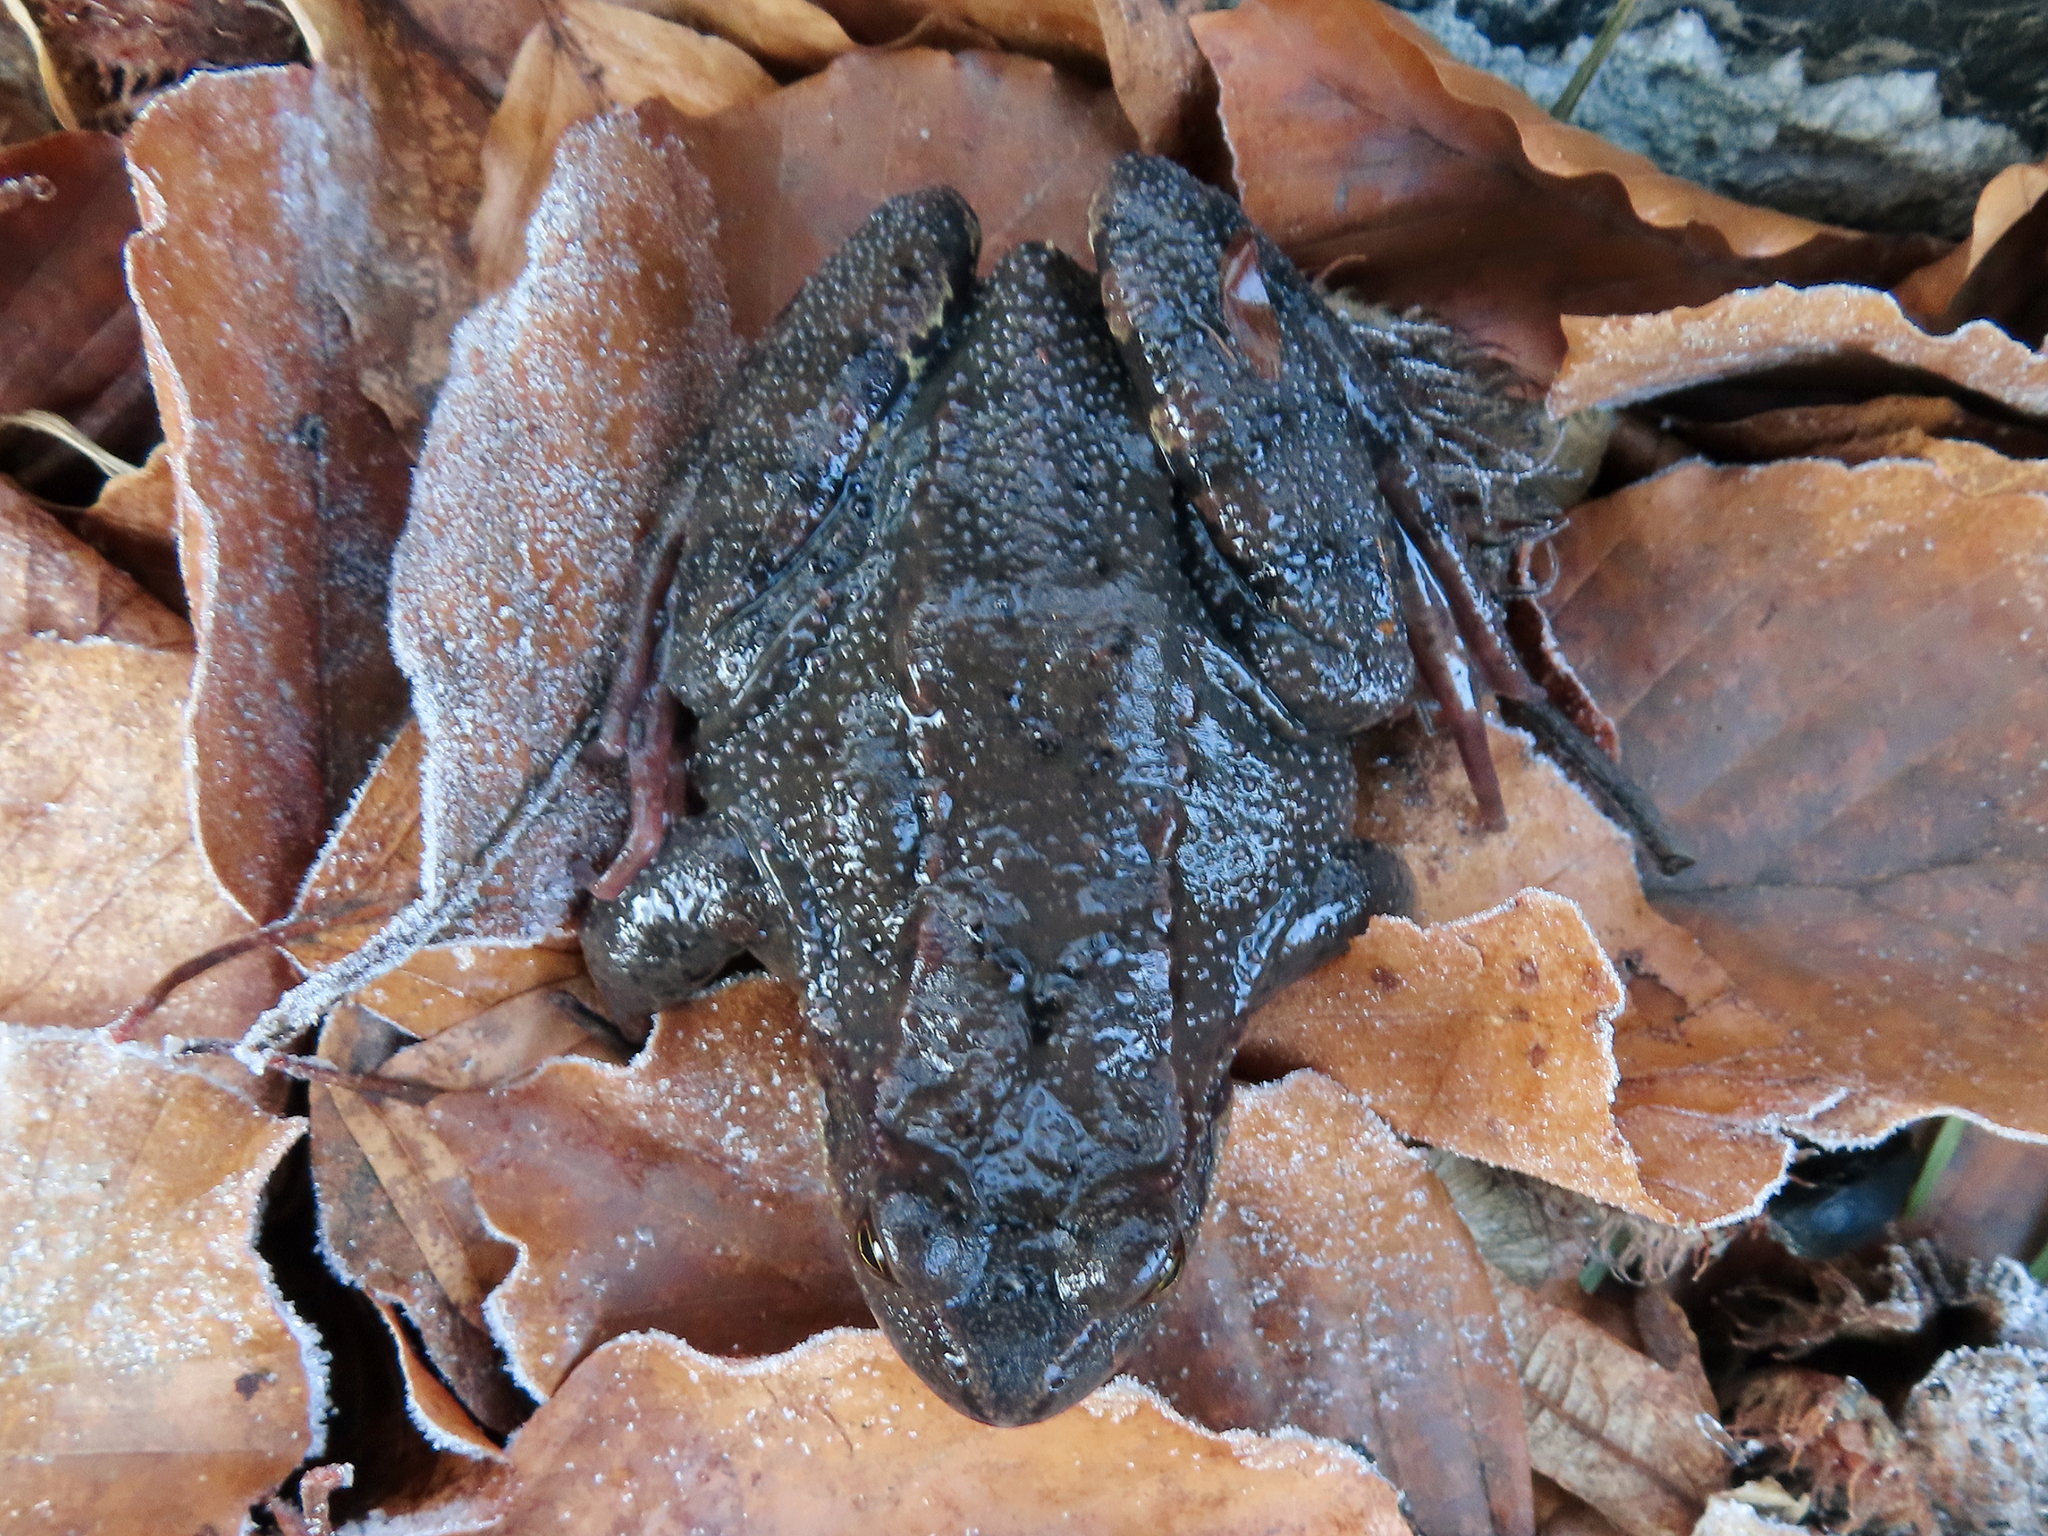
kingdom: Animalia
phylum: Chordata
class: Amphibia
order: Anura
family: Ranidae
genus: Rana
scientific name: Rana temporaria
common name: Common frog
